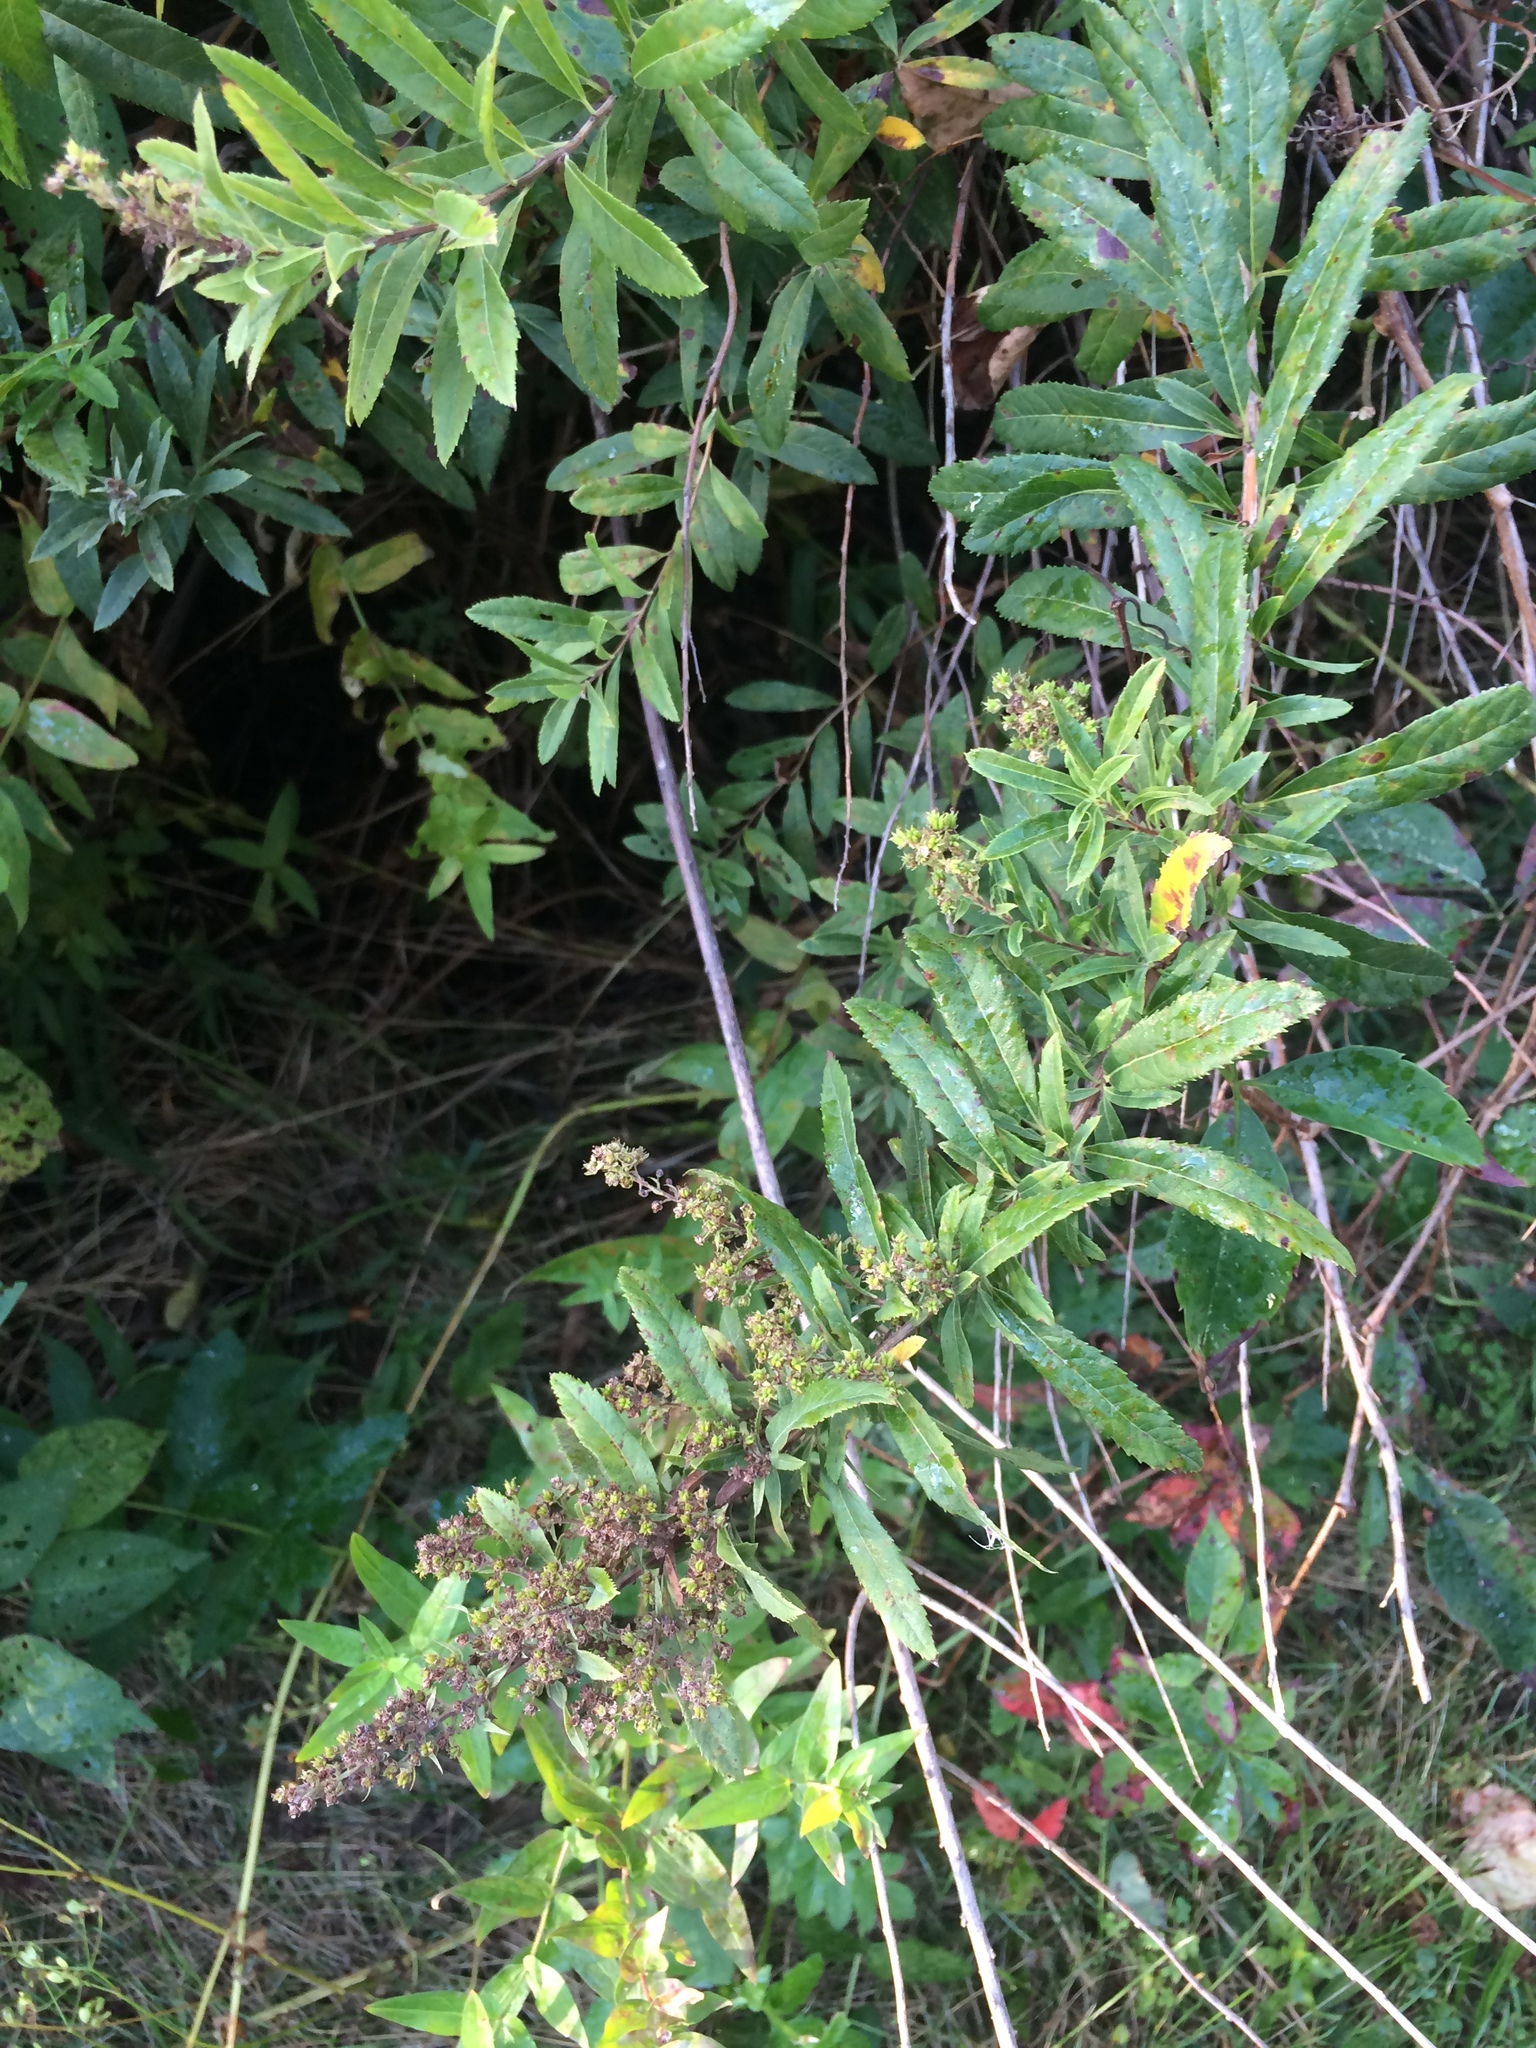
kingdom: Plantae
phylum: Tracheophyta
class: Magnoliopsida
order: Rosales
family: Rosaceae
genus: Spiraea
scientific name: Spiraea alba
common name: Pale bridewort
